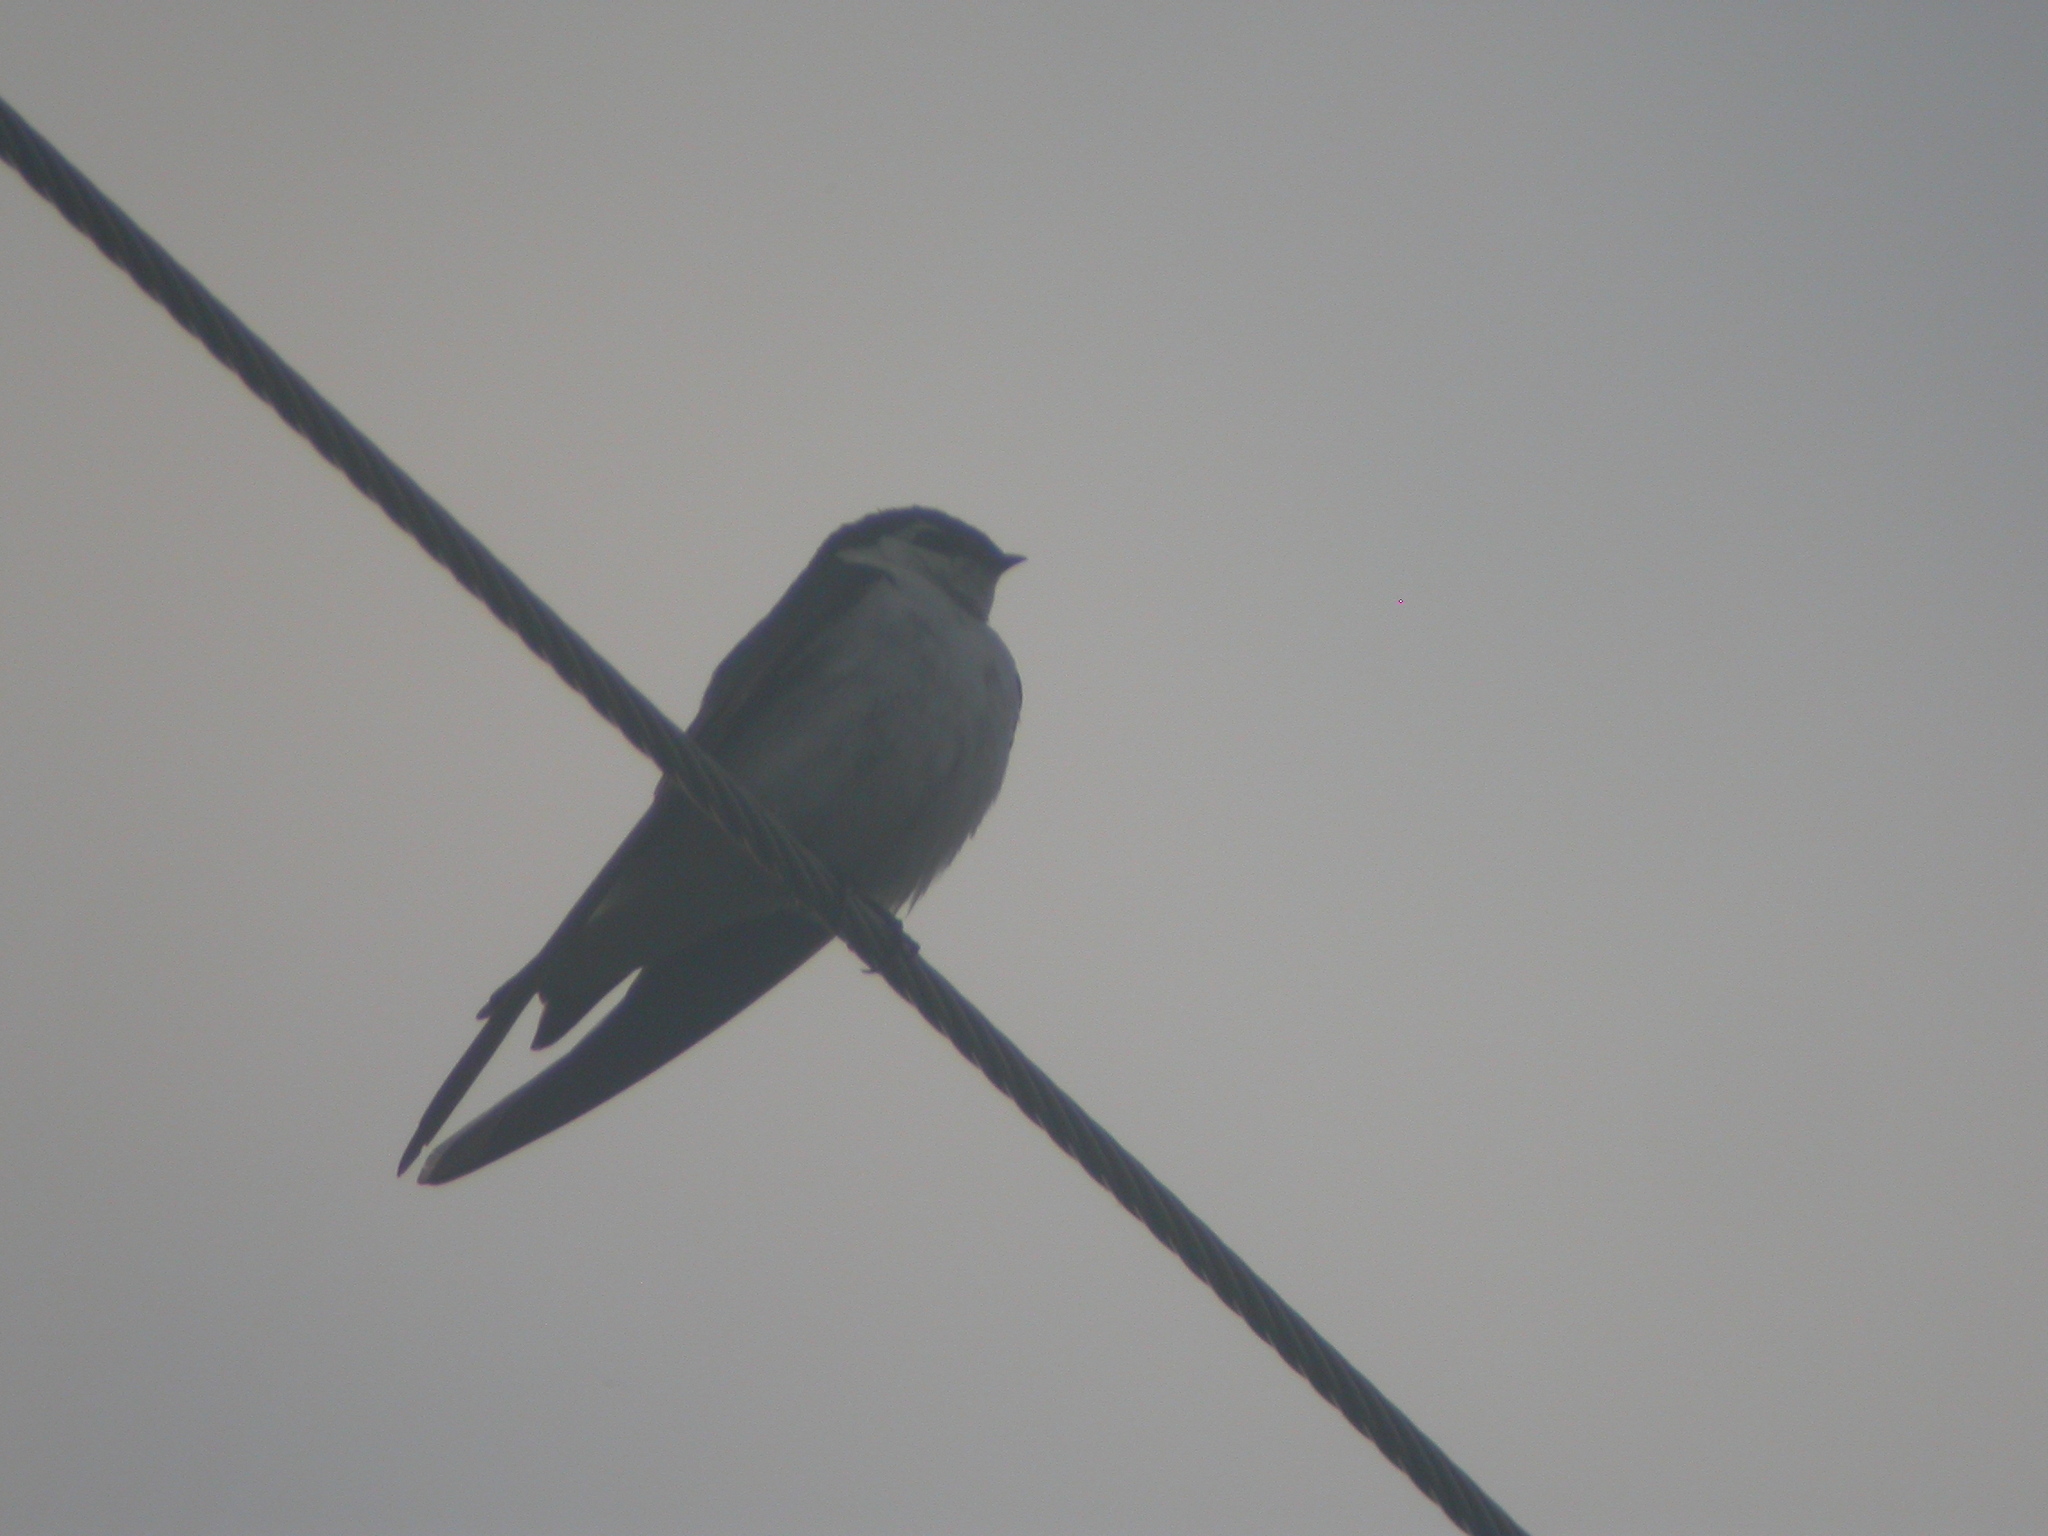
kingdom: Animalia
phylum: Chordata
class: Aves
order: Passeriformes
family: Hirundinidae
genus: Tachycineta
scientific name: Tachycineta thalassina
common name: Violet-green swallow
